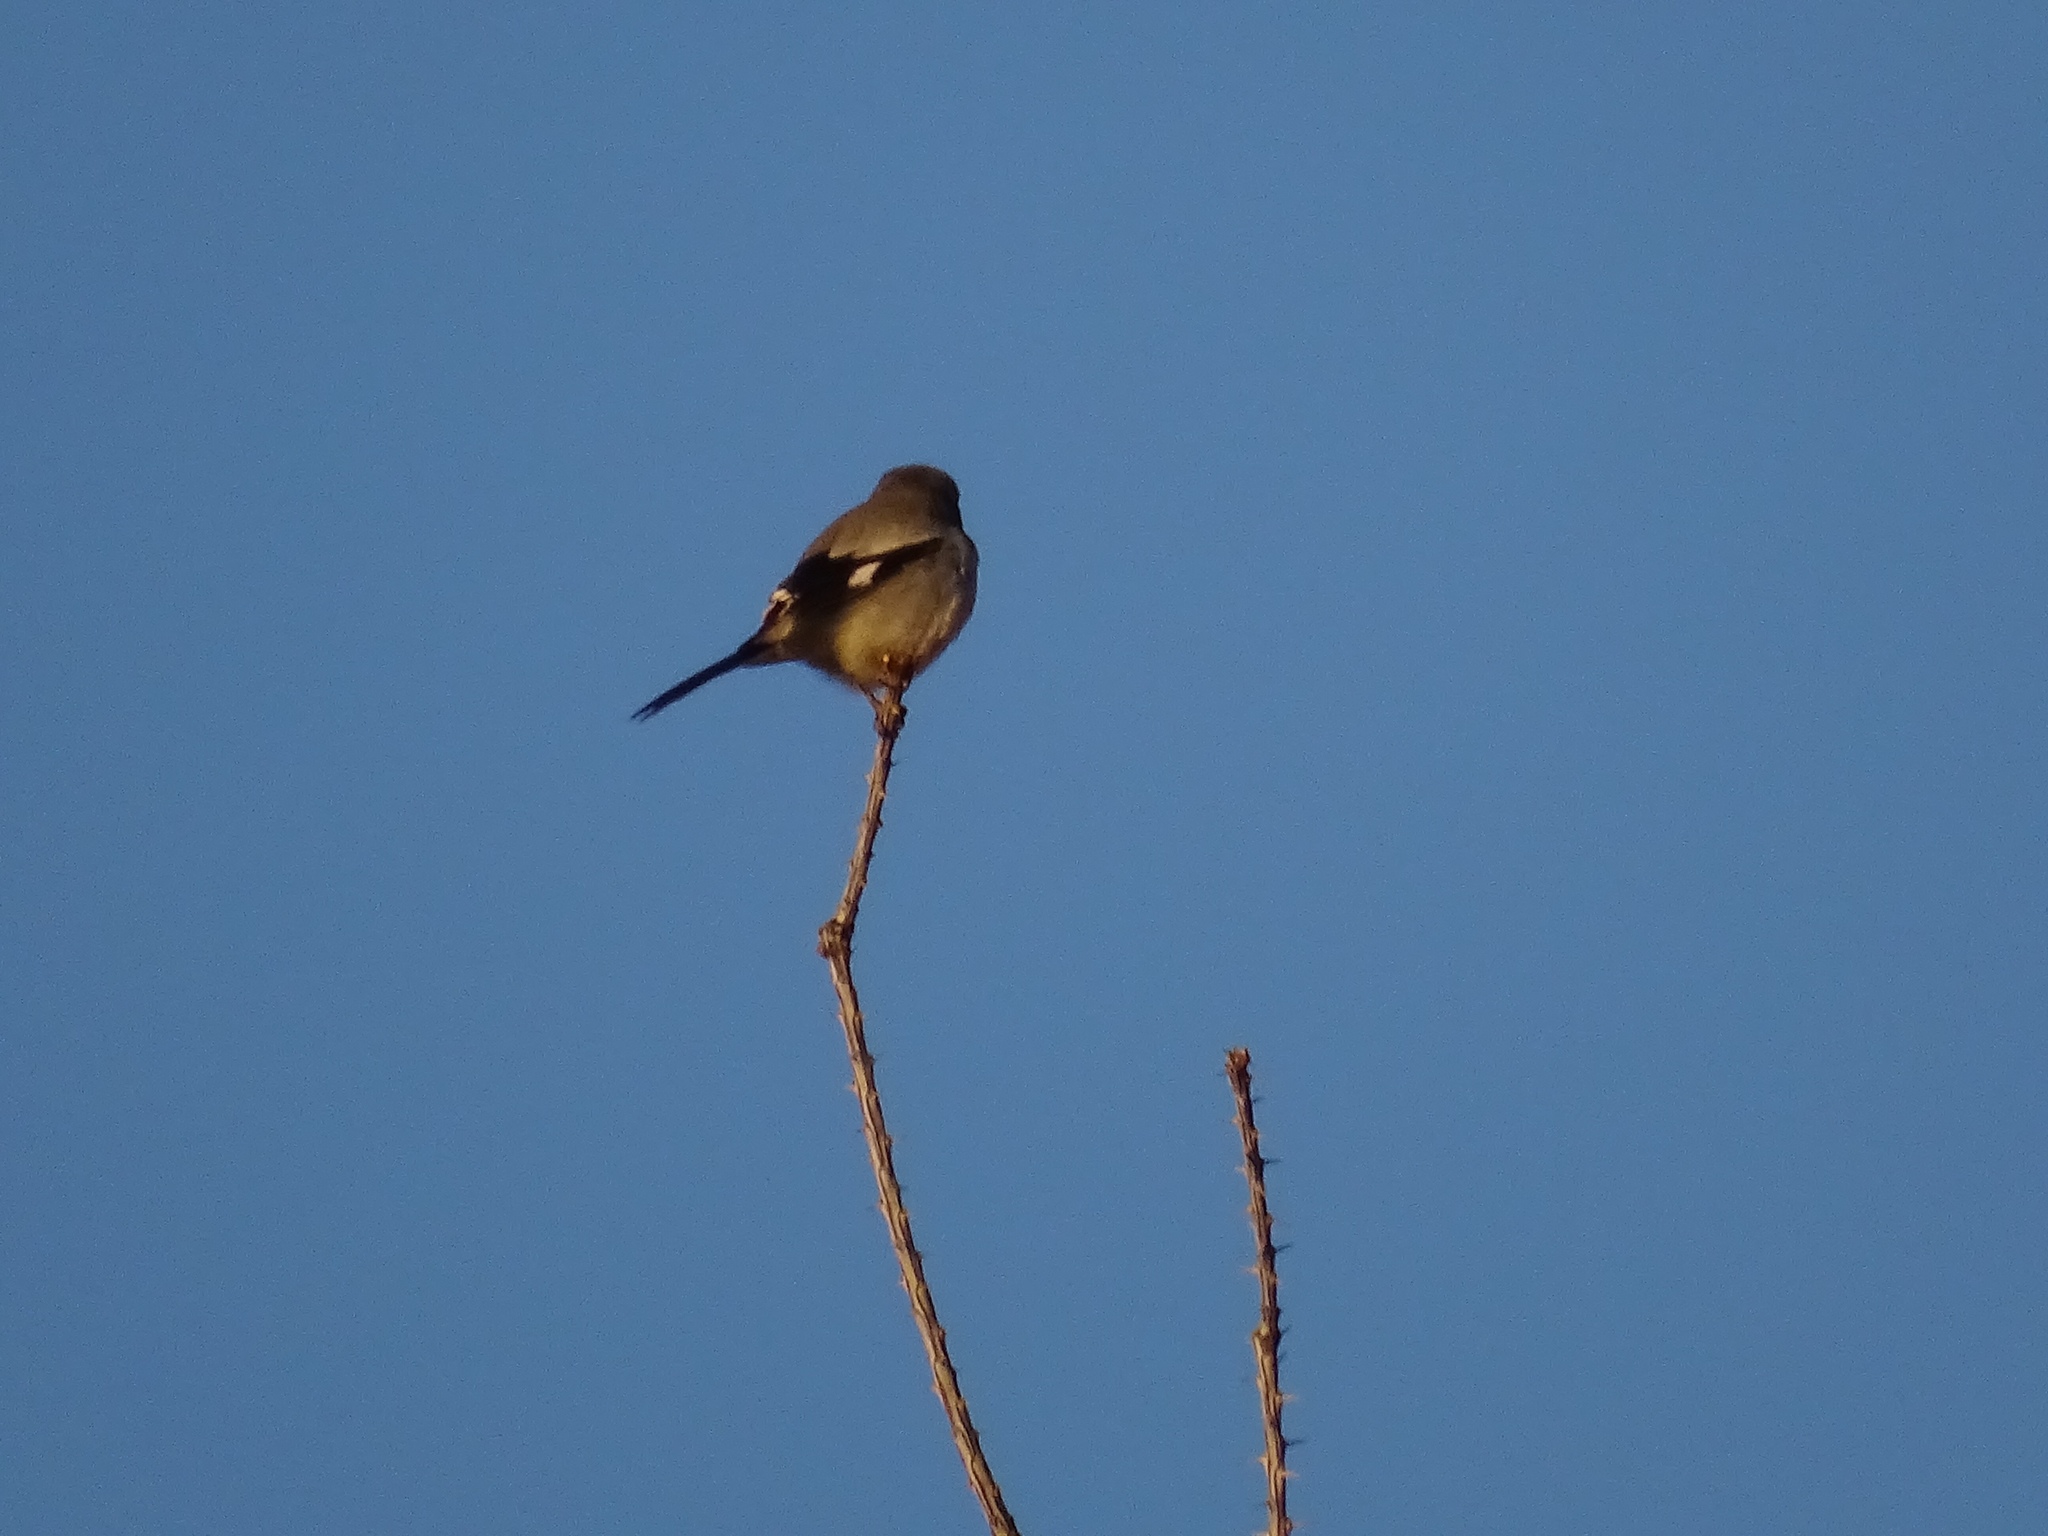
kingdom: Animalia
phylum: Chordata
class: Aves
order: Passeriformes
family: Laniidae
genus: Lanius
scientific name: Lanius ludovicianus
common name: Loggerhead shrike
